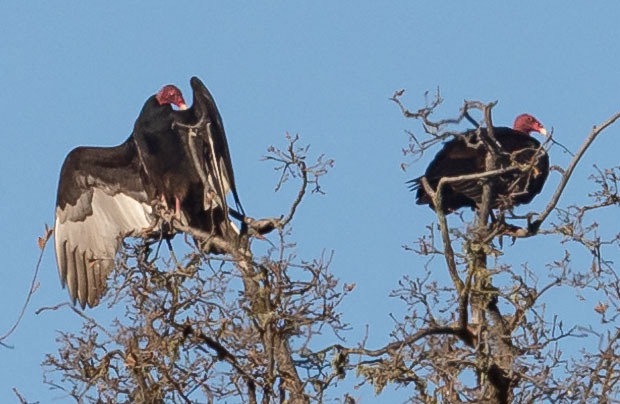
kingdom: Animalia
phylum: Chordata
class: Aves
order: Accipitriformes
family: Cathartidae
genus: Cathartes
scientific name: Cathartes aura
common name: Turkey vulture
